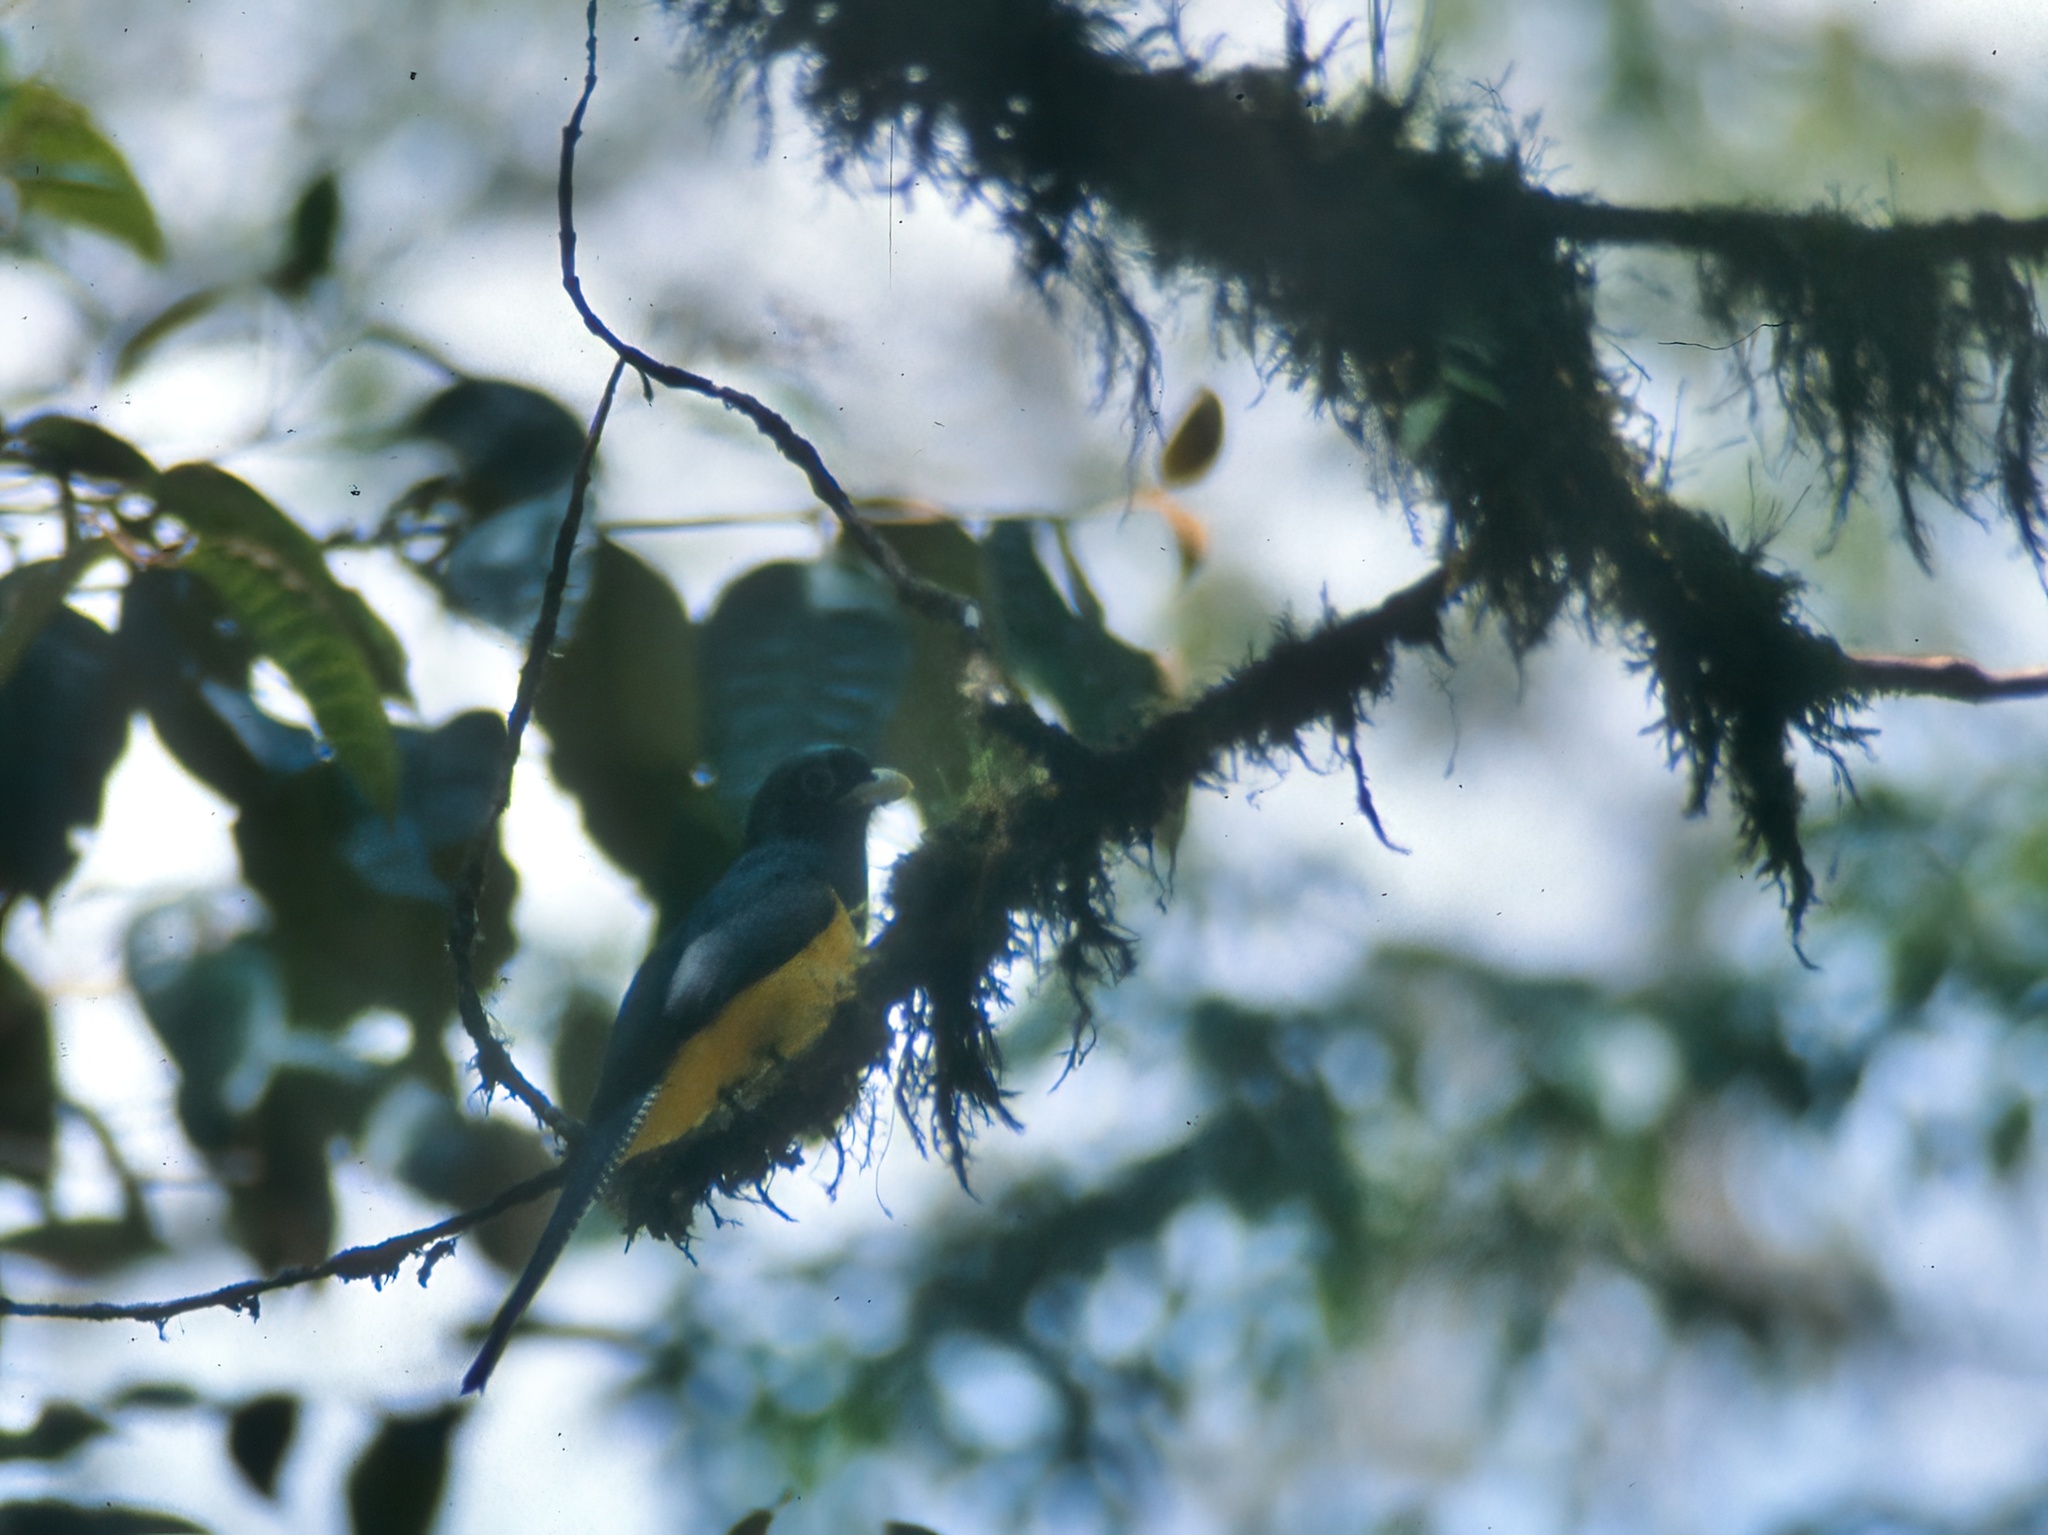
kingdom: Animalia
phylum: Chordata
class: Aves
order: Trogoniformes
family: Trogonidae
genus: Trogon
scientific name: Trogon rufus
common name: Black-throated trogon
